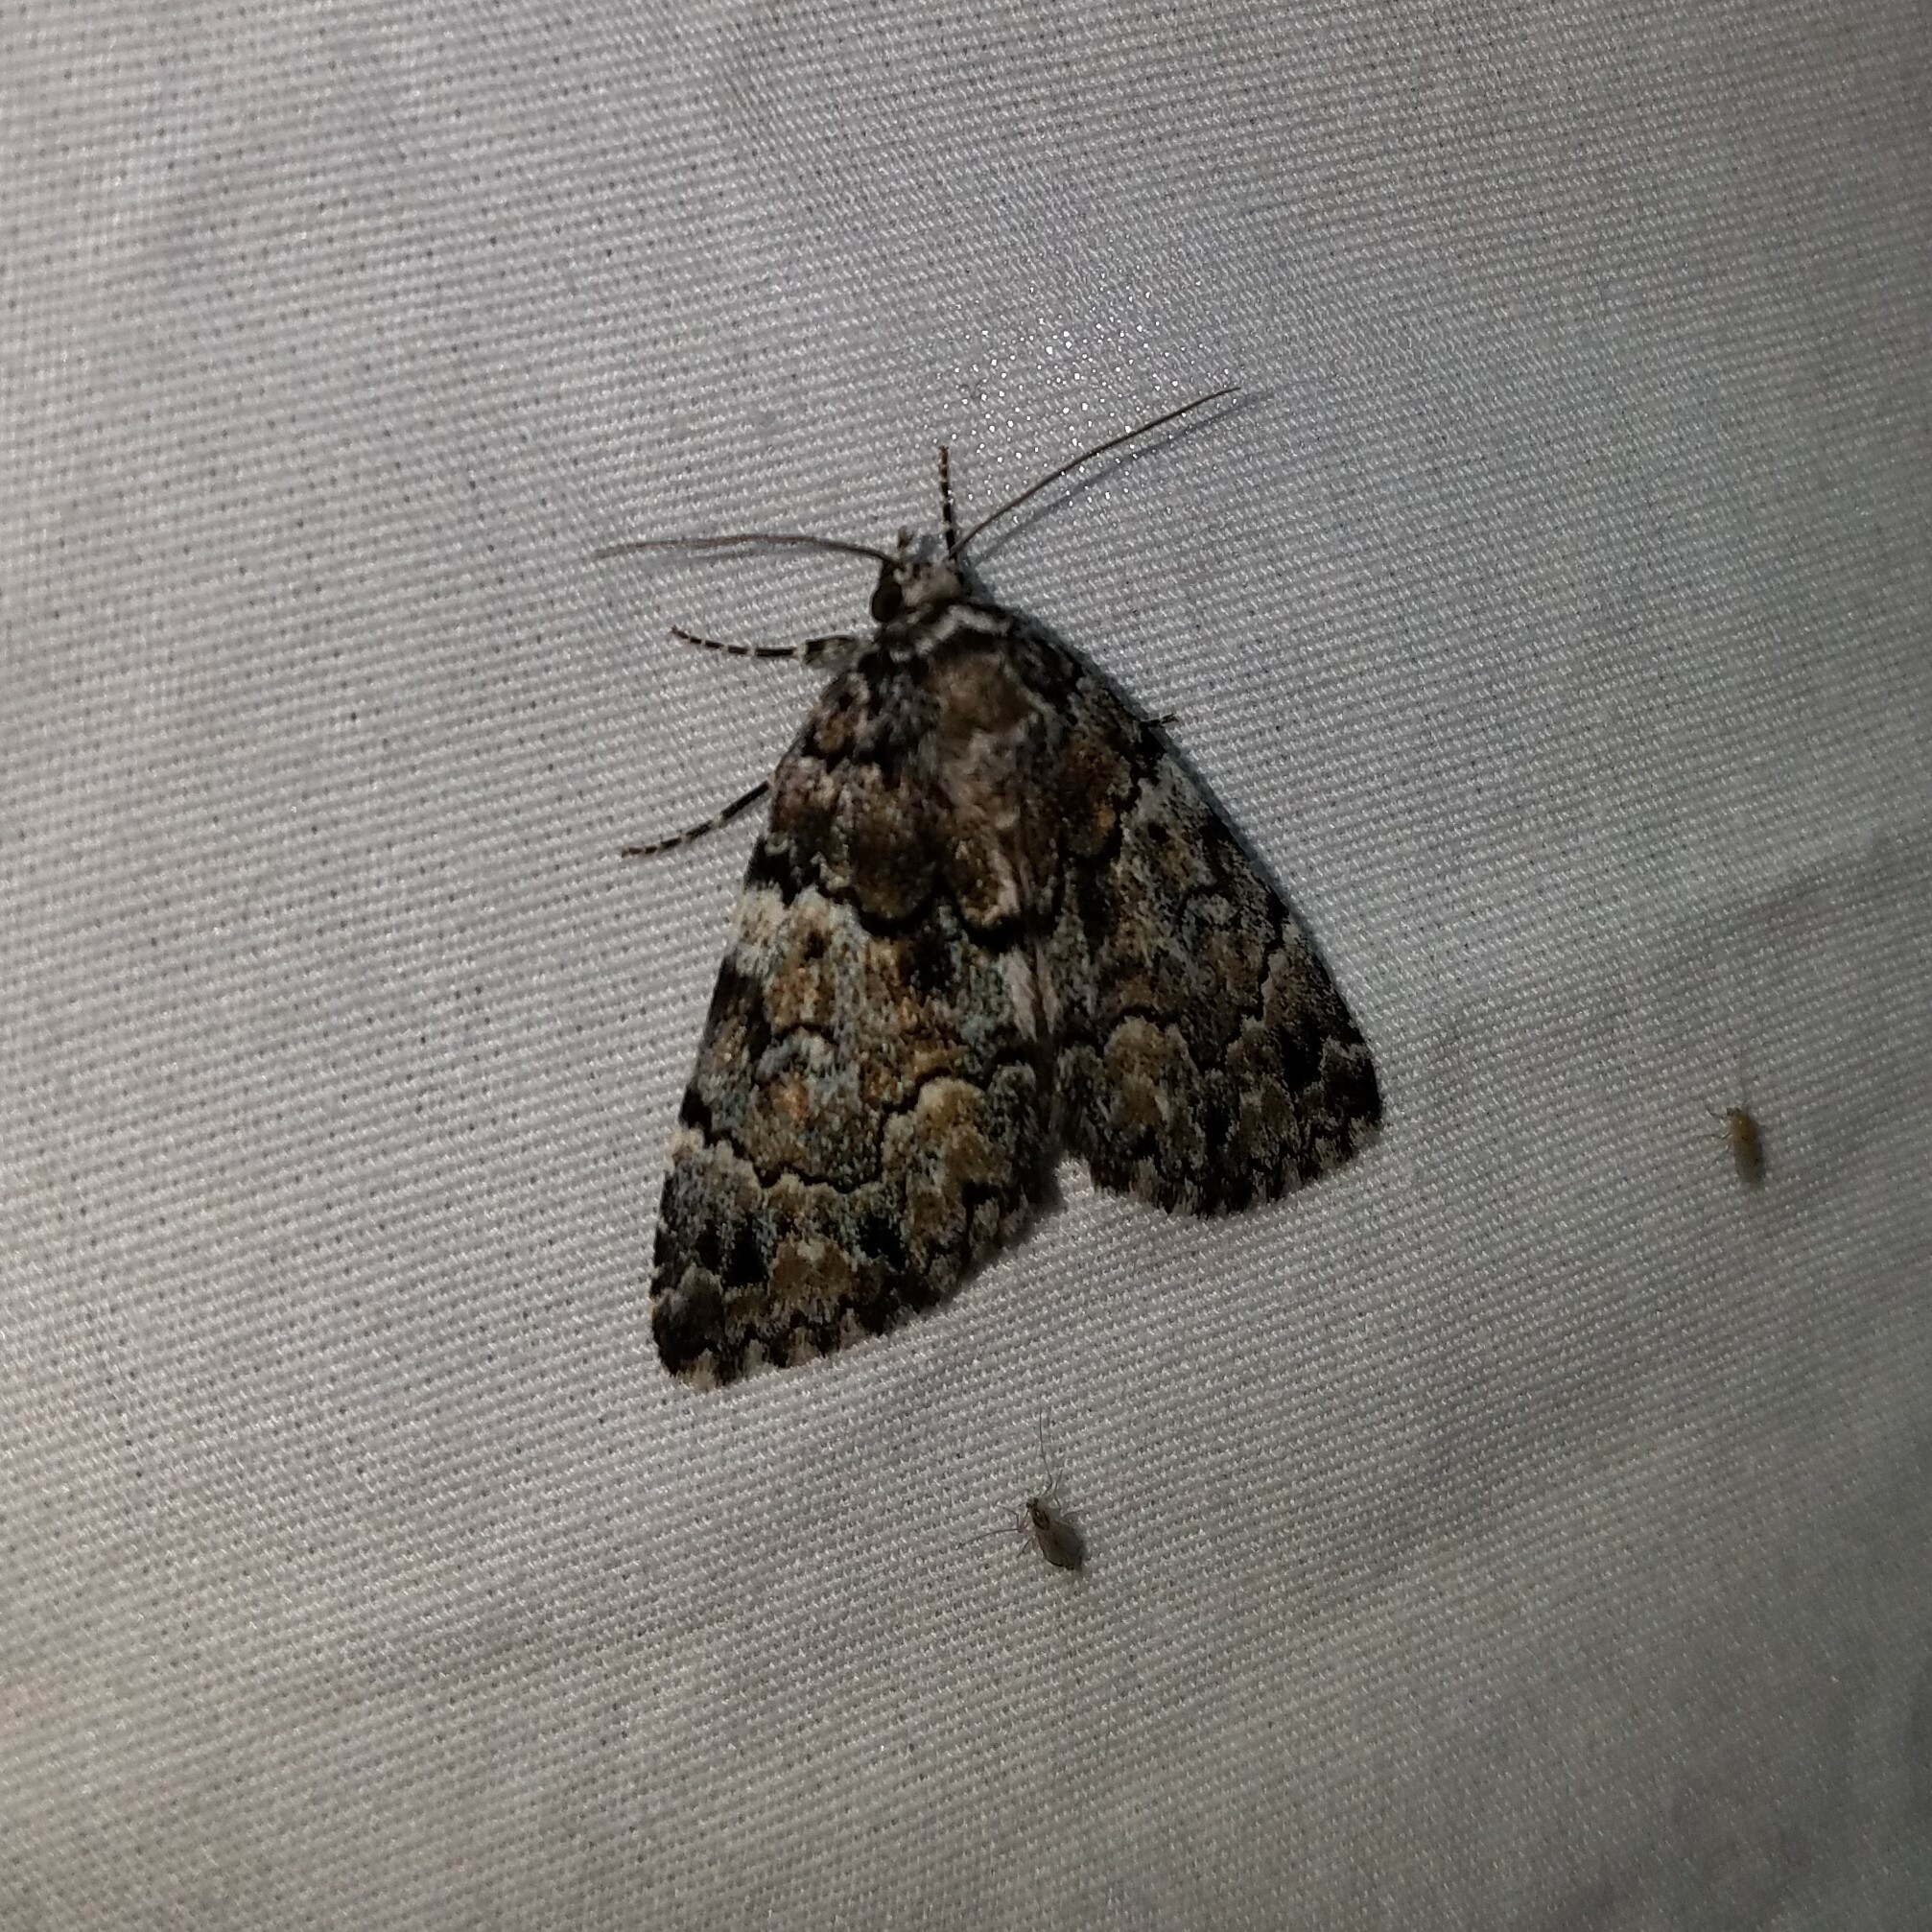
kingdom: Animalia
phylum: Arthropoda
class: Insecta
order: Lepidoptera
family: Erebidae
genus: Allotria
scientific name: Allotria elonympha
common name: False underwing
